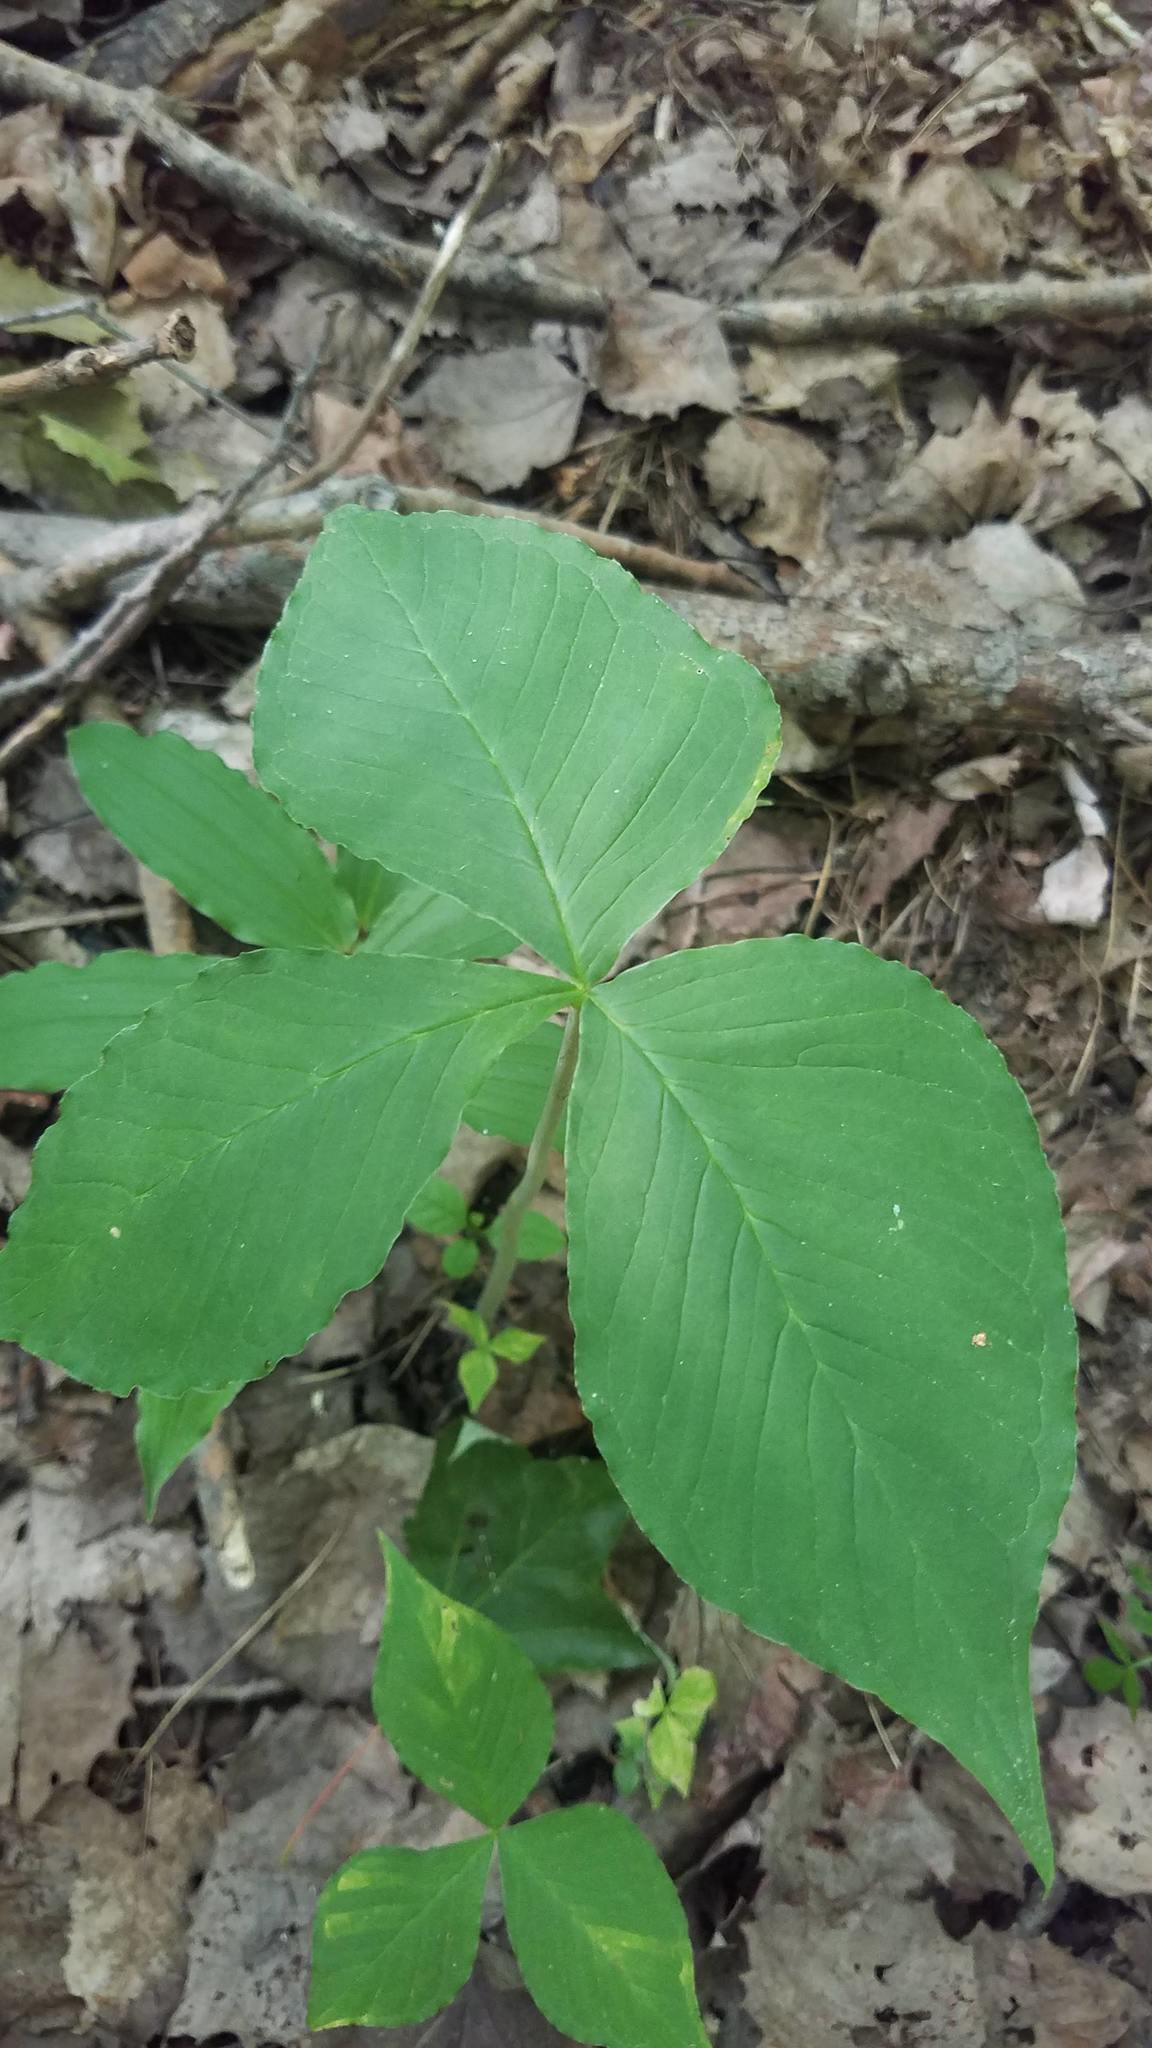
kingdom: Plantae
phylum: Tracheophyta
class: Liliopsida
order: Alismatales
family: Araceae
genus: Arisaema
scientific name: Arisaema triphyllum
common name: Jack-in-the-pulpit
